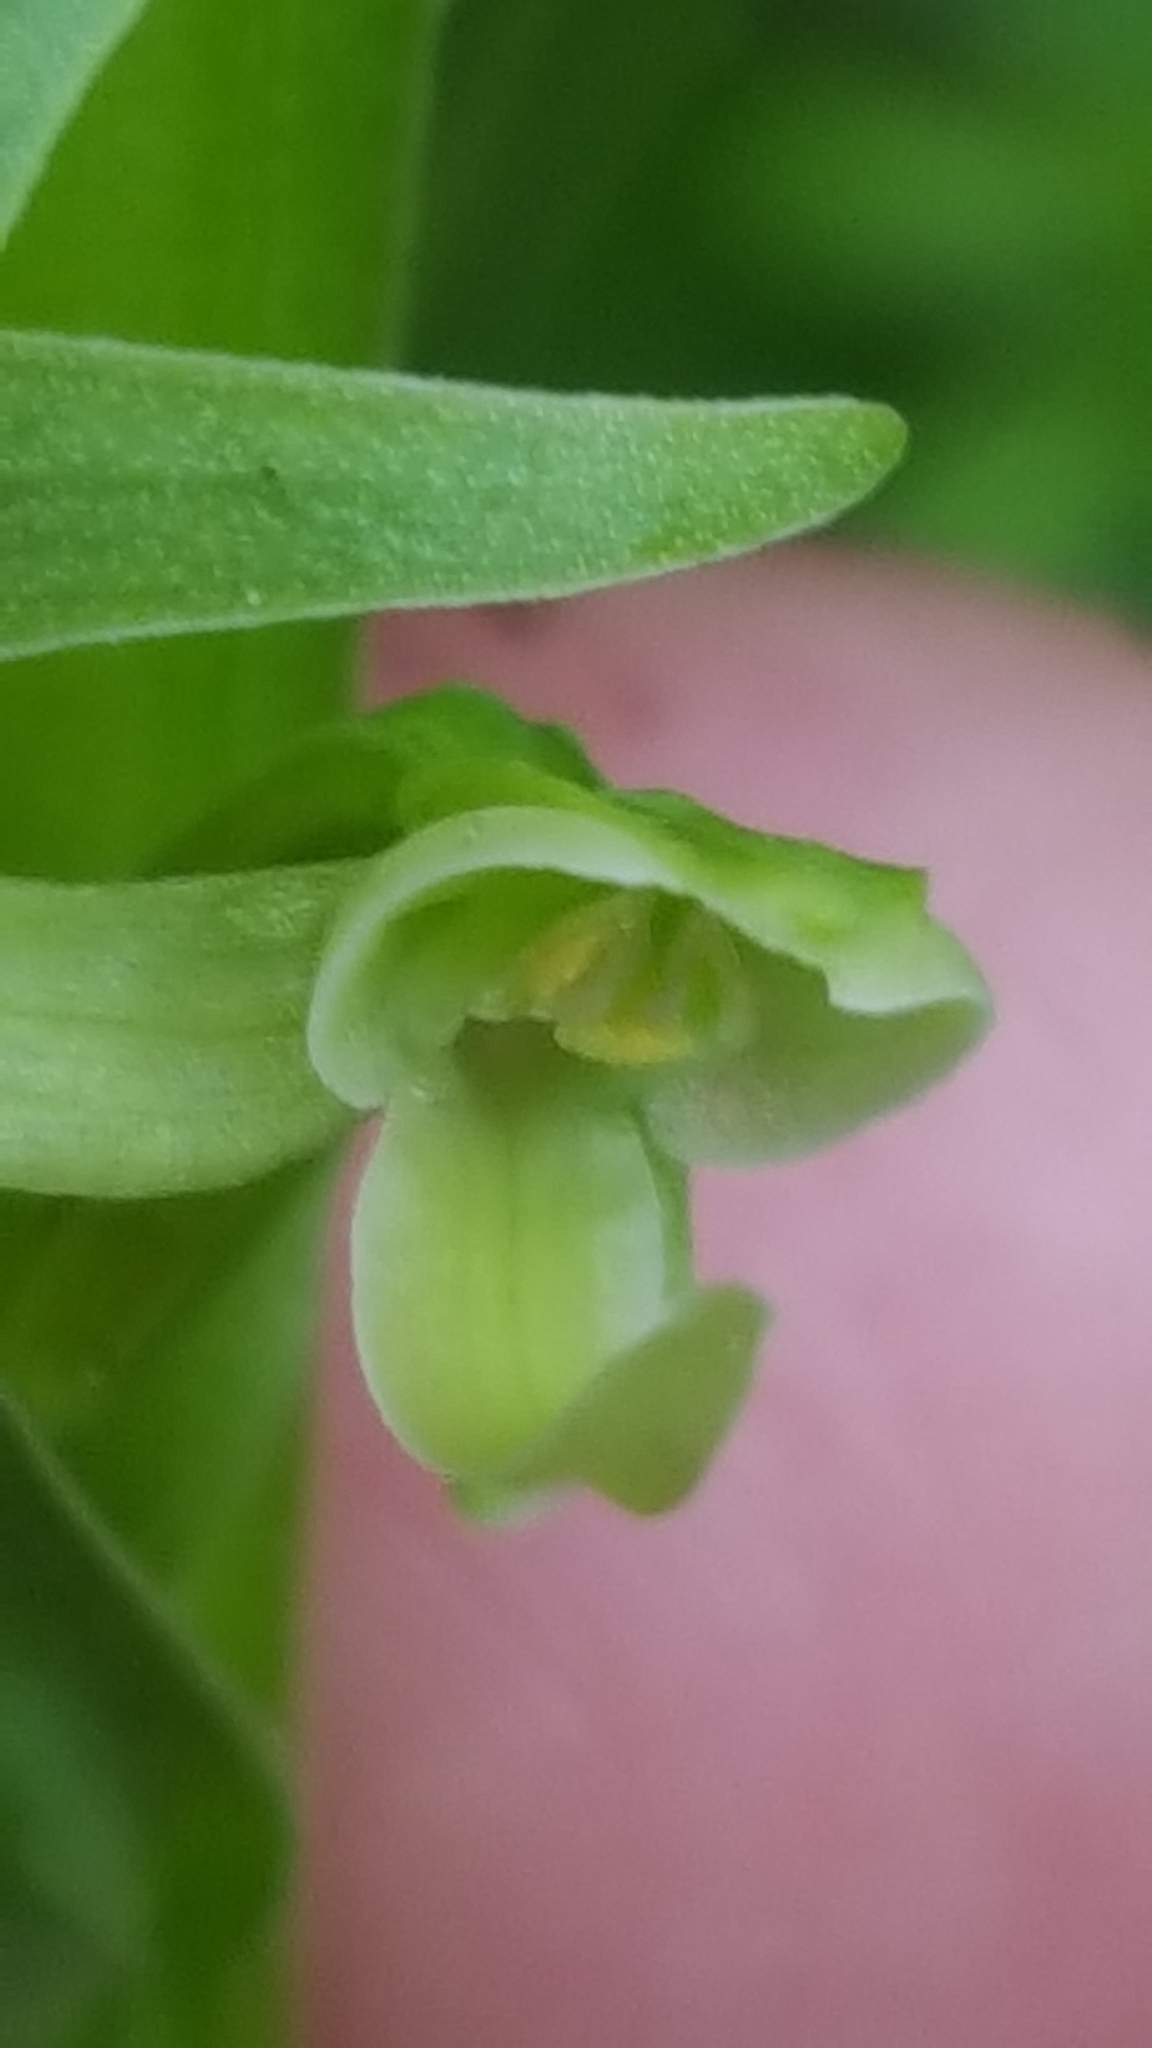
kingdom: Plantae
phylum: Tracheophyta
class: Liliopsida
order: Asparagales
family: Orchidaceae
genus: Platanthera
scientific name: Platanthera huronensis
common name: Fragrant green orchid
